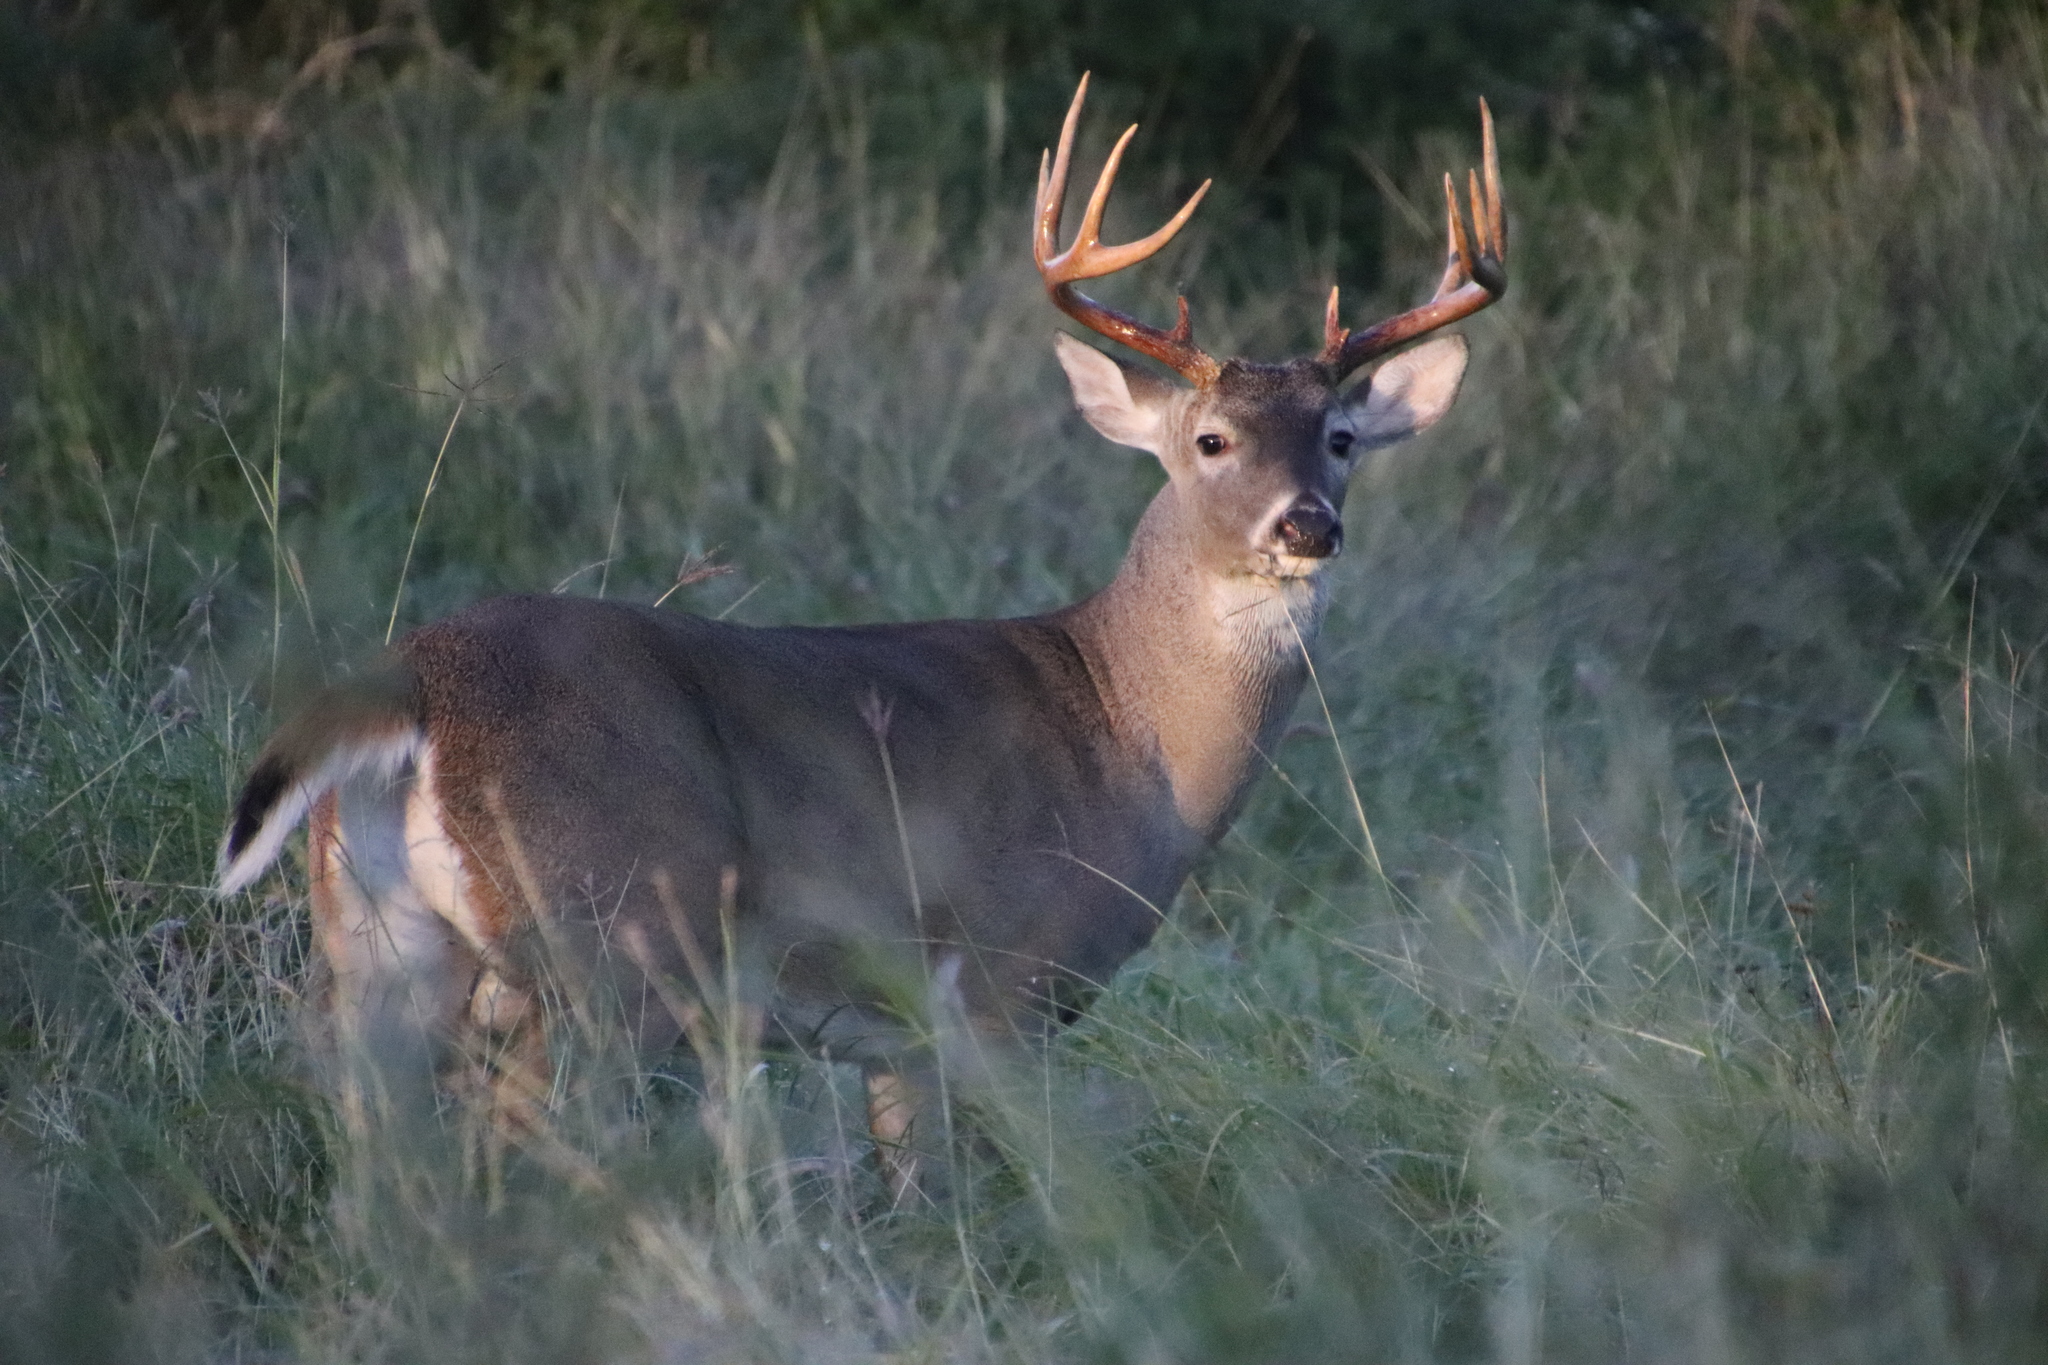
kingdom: Animalia
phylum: Chordata
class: Mammalia
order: Artiodactyla
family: Cervidae
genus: Odocoileus
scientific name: Odocoileus virginianus
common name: White-tailed deer
